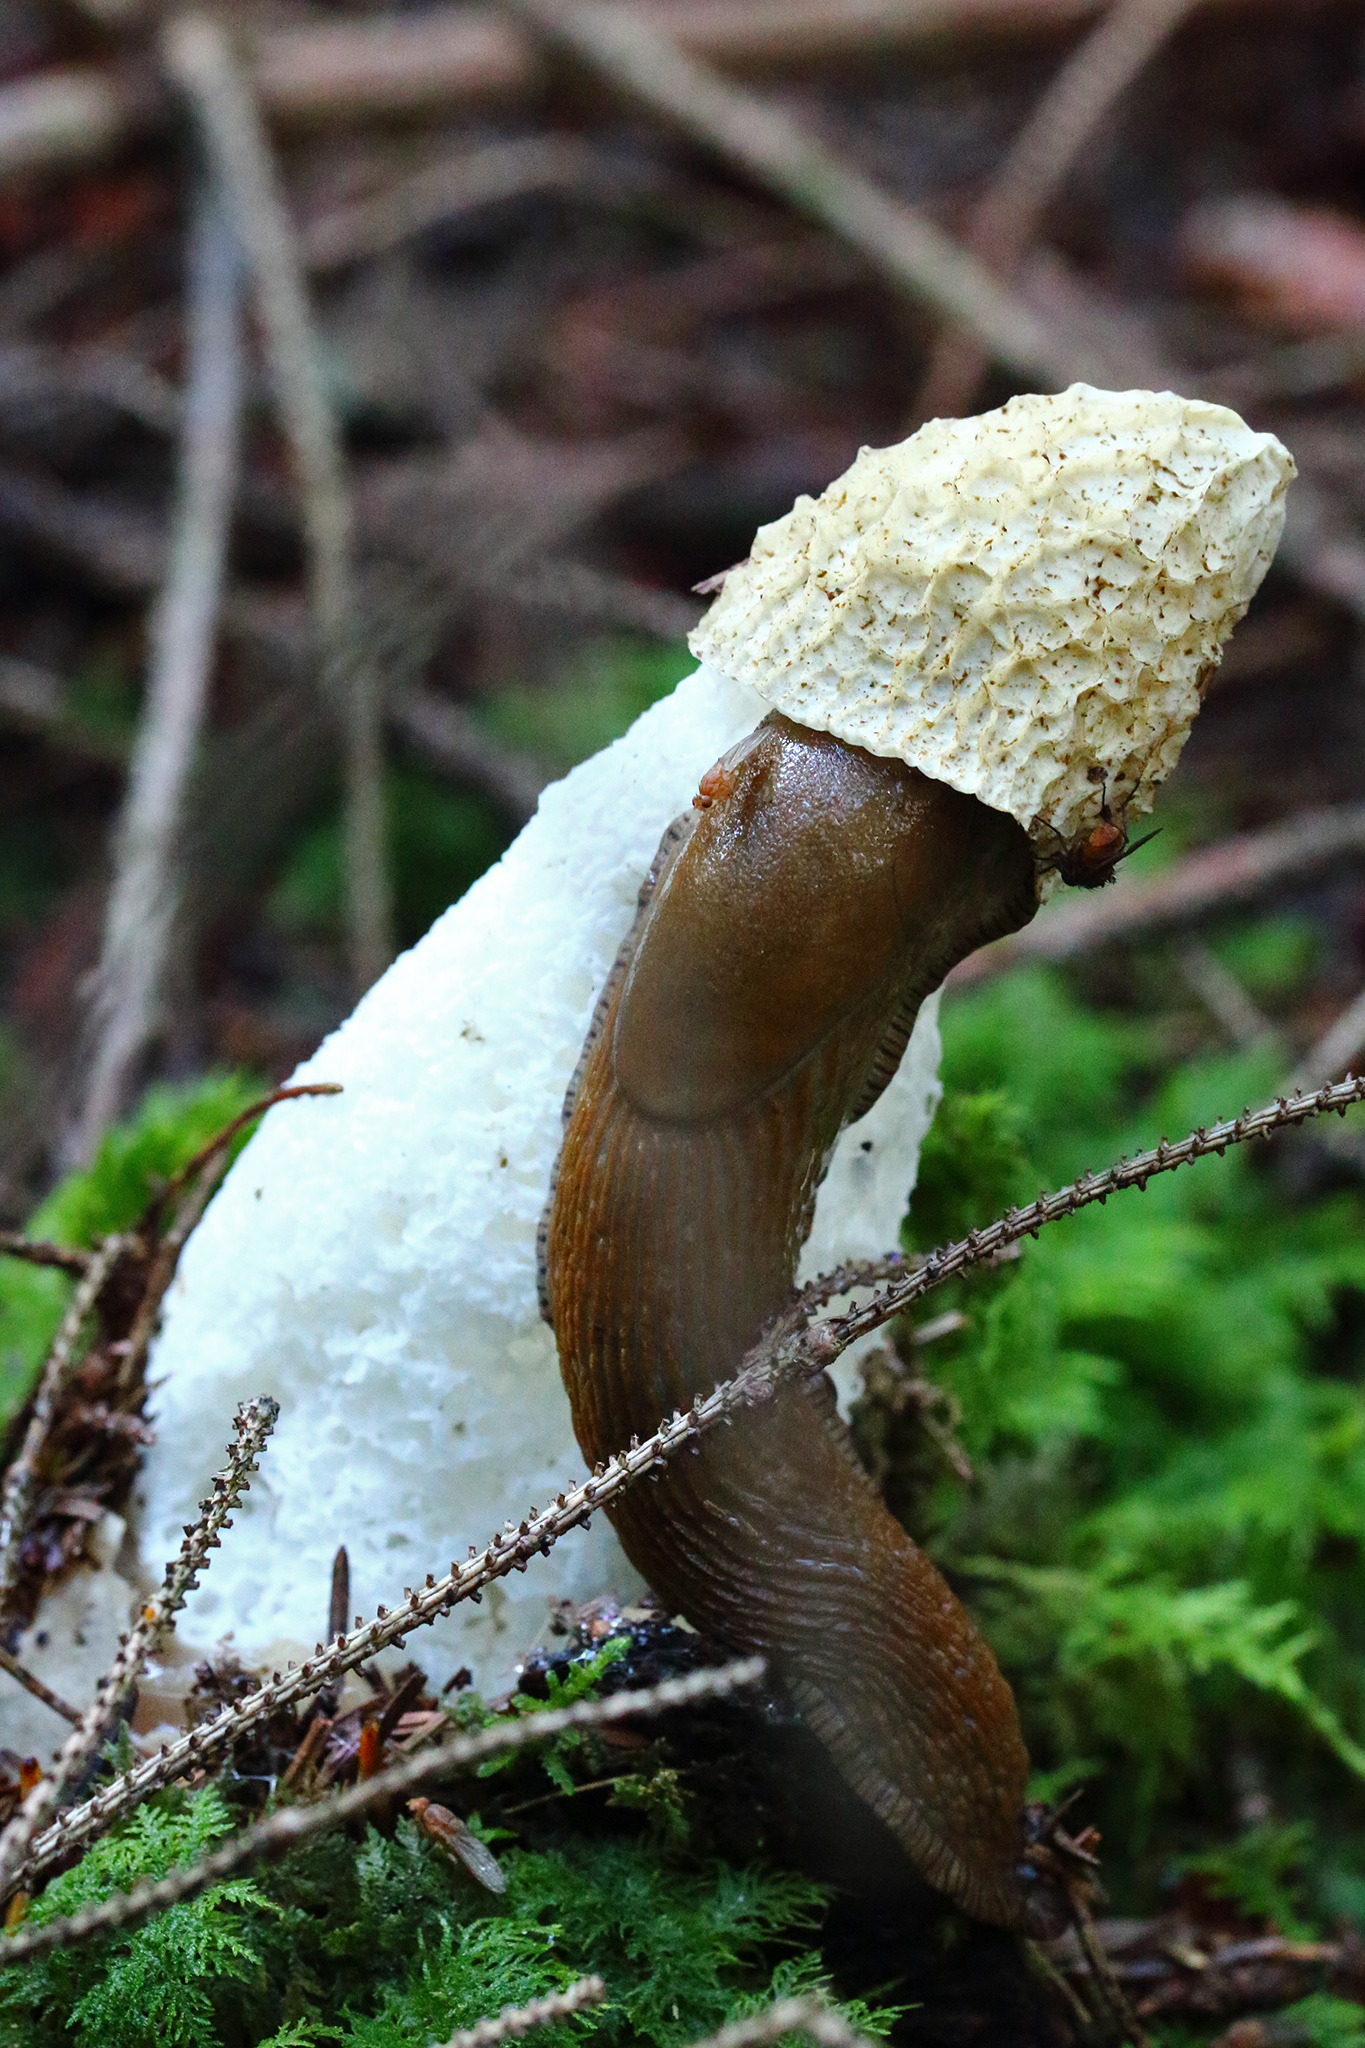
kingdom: Fungi
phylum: Basidiomycota
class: Agaricomycetes
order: Phallales
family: Phallaceae
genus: Phallus
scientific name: Phallus impudicus
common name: Common stinkhorn
